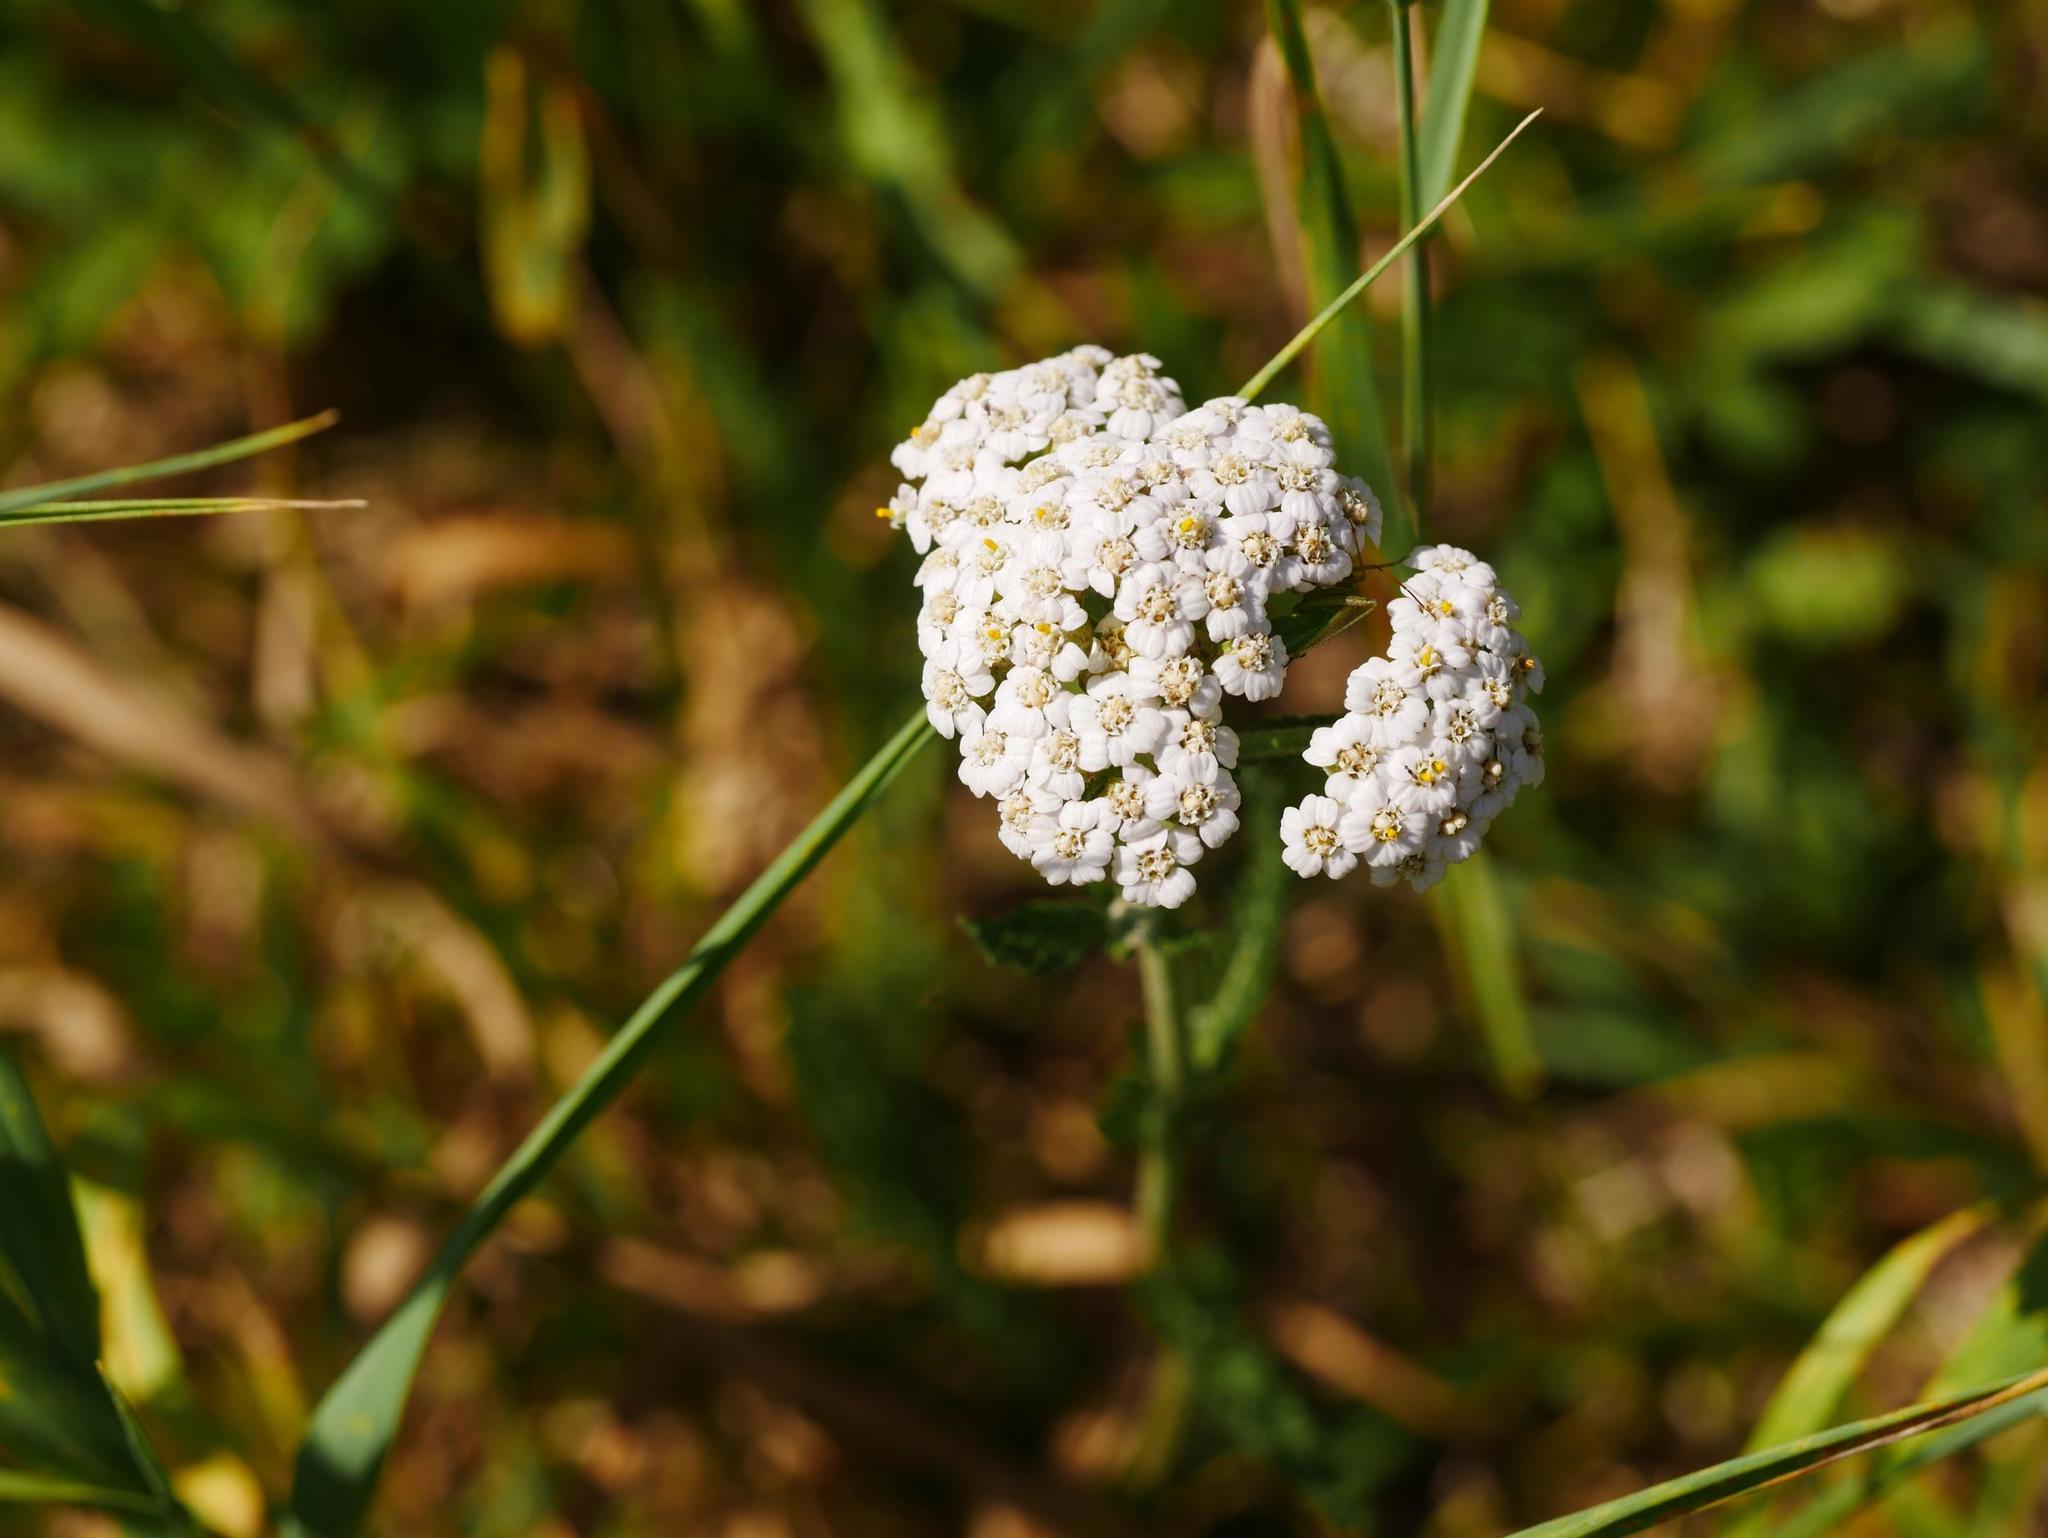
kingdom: Plantae
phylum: Tracheophyta
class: Magnoliopsida
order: Asterales
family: Asteraceae
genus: Achillea
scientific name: Achillea millefolium
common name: Yarrow
